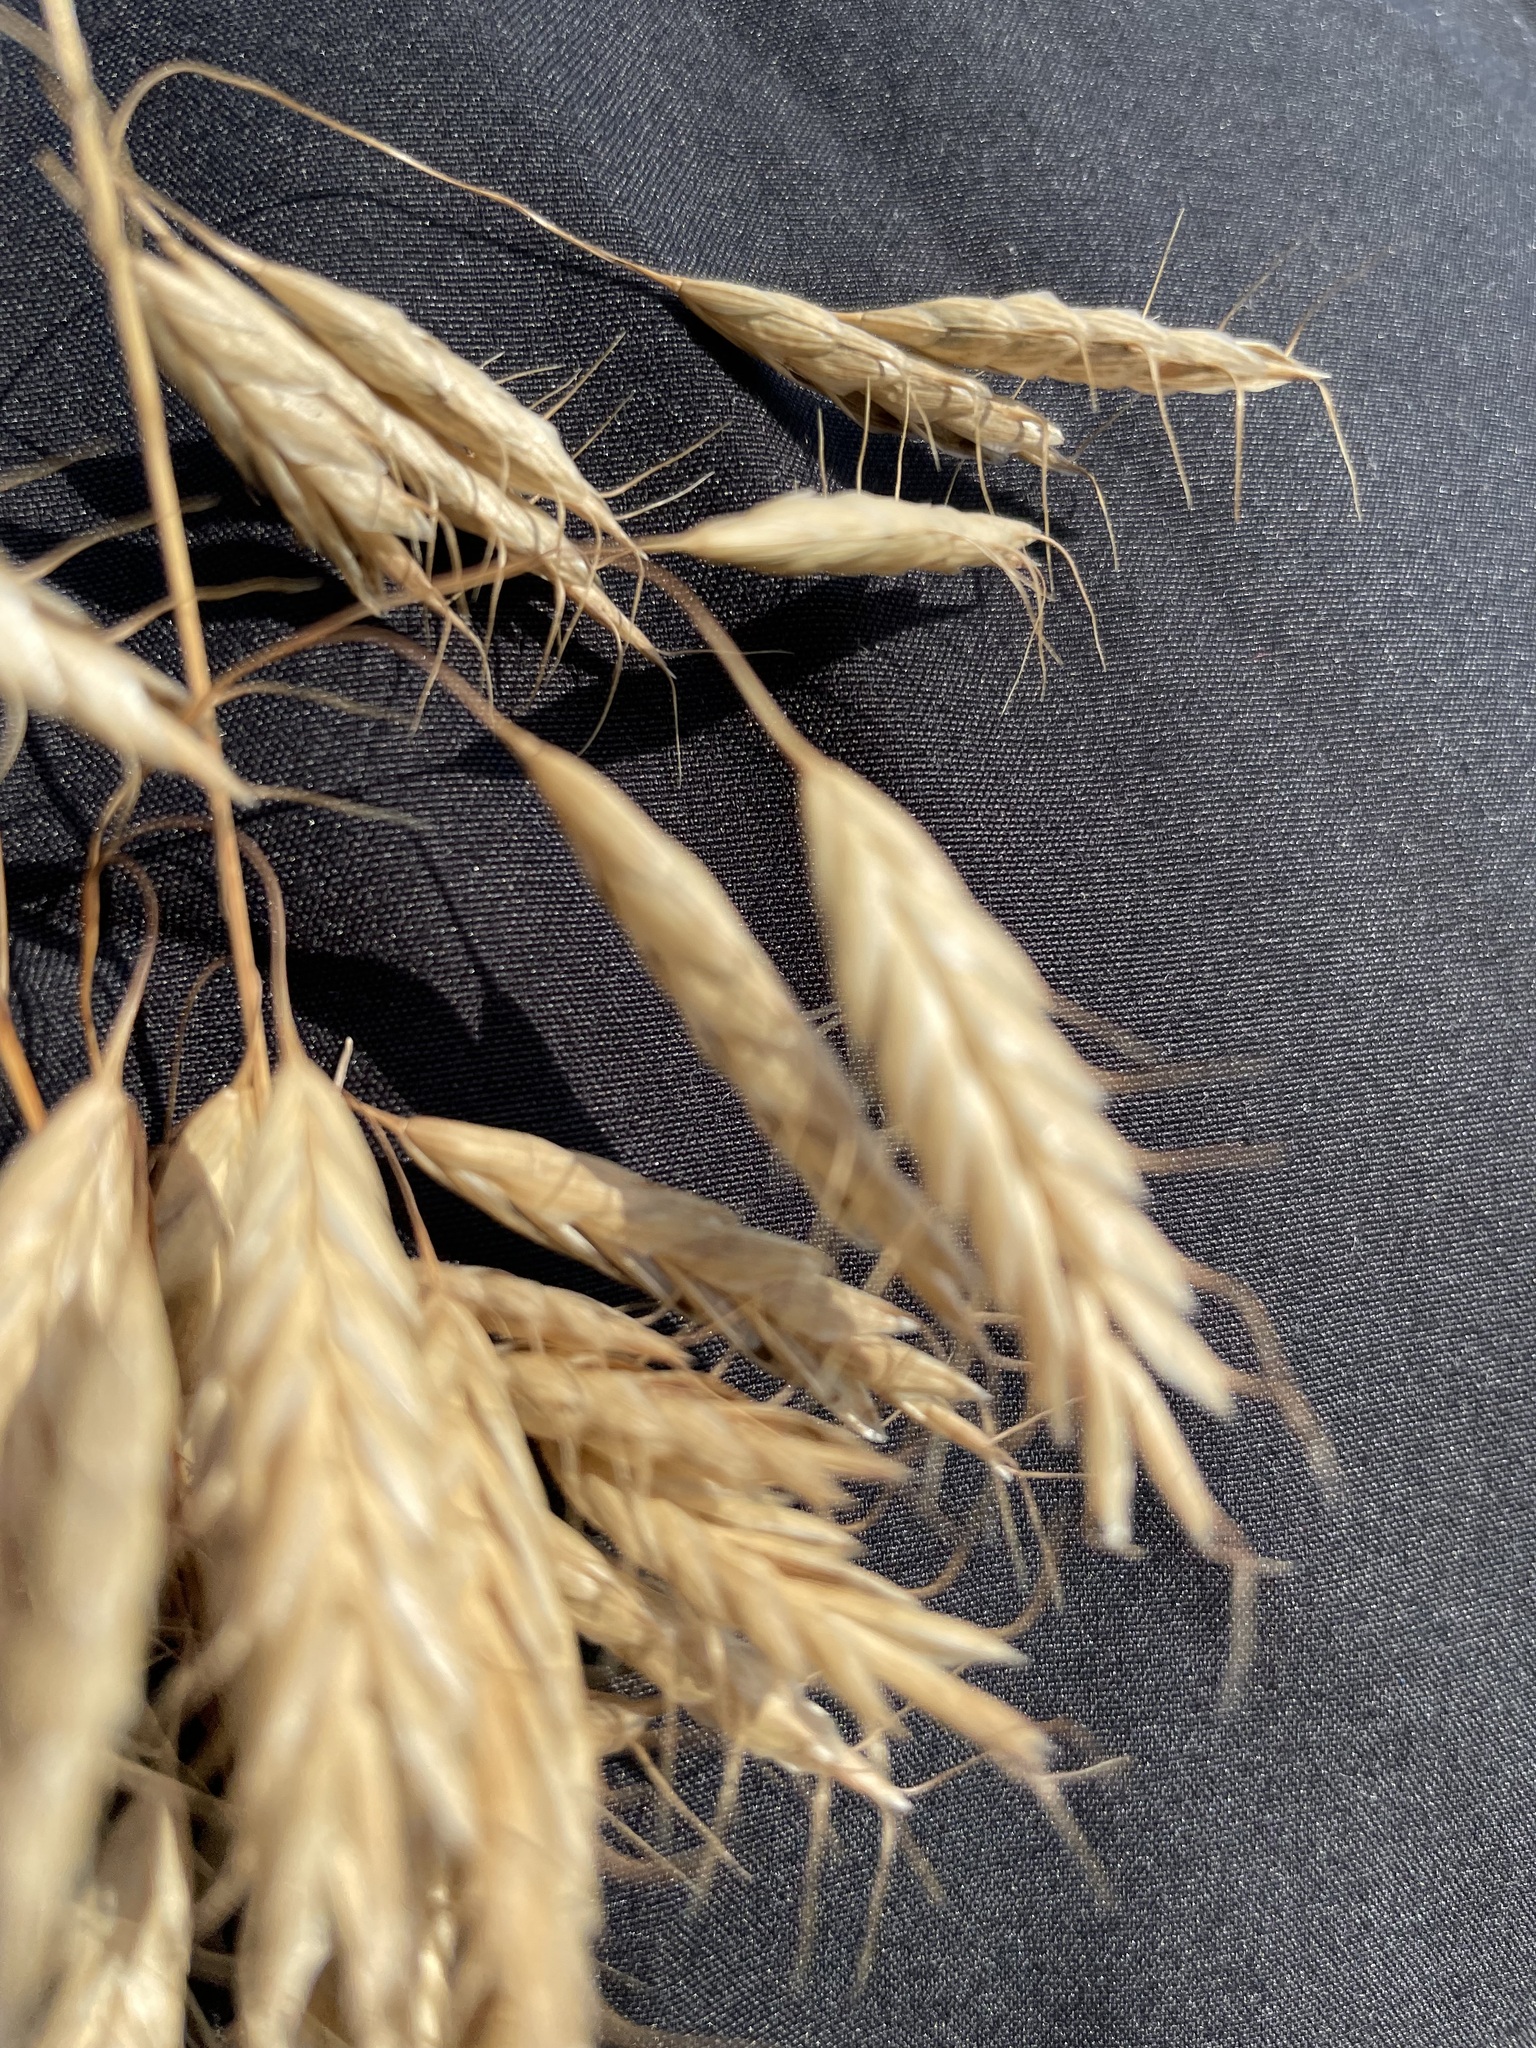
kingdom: Plantae
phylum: Tracheophyta
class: Liliopsida
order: Poales
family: Poaceae
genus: Bromus
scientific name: Bromus squarrosus
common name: Corn brome
